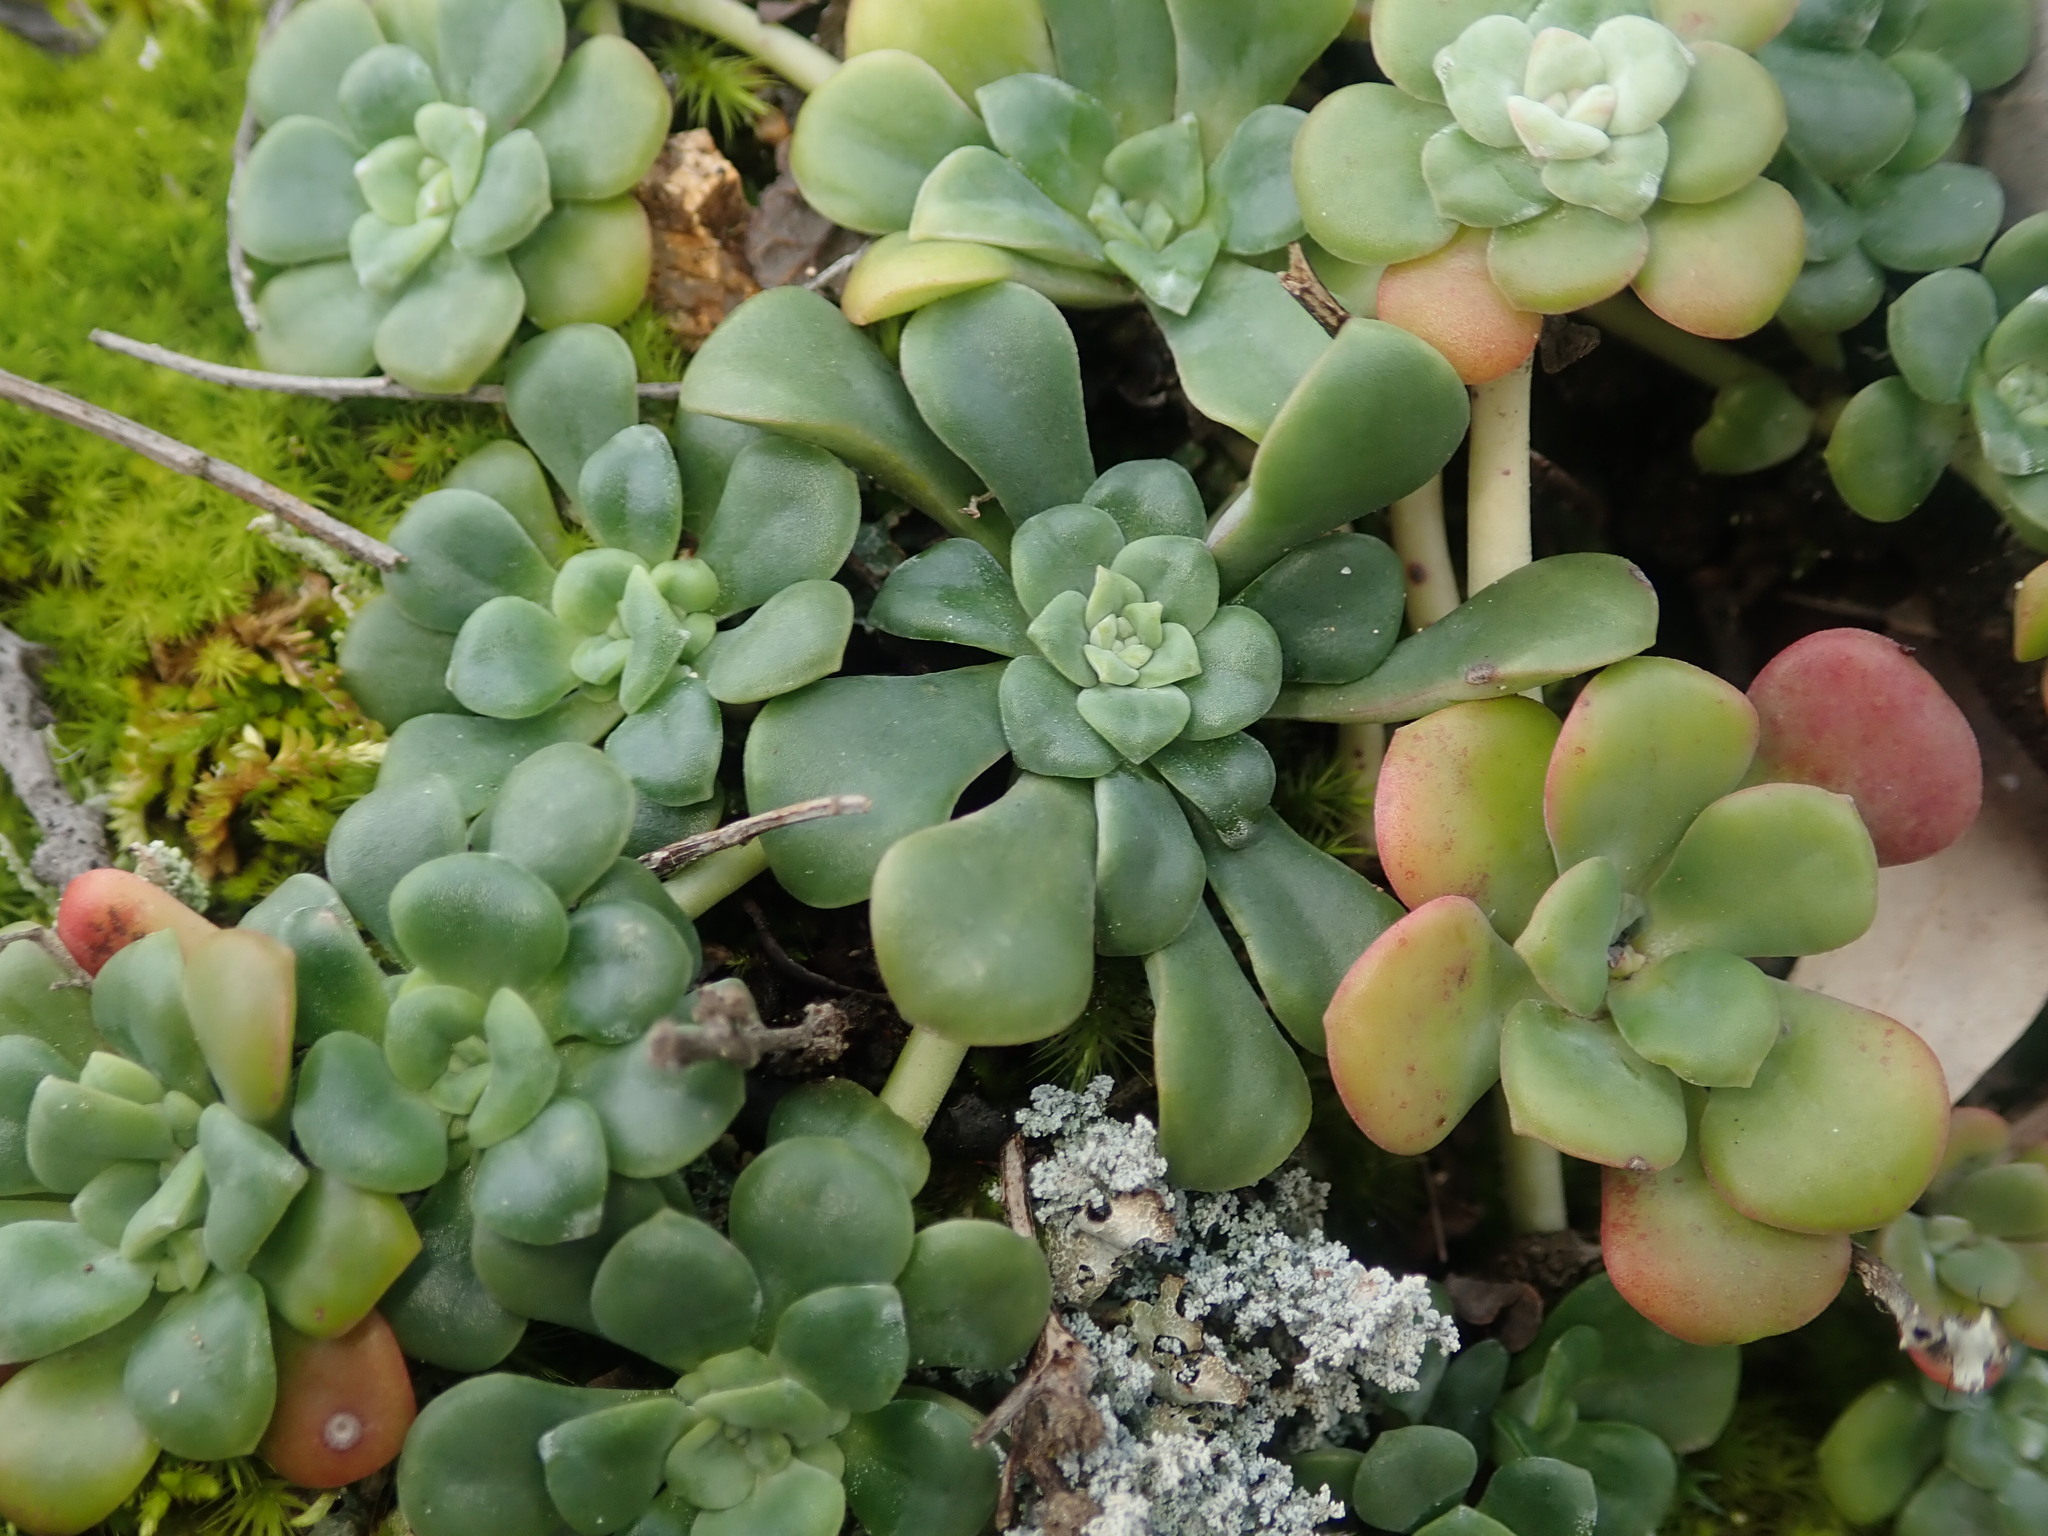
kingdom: Plantae
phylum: Tracheophyta
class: Magnoliopsida
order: Saxifragales
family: Crassulaceae
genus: Sedum
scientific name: Sedum spathulifolium
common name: Colorado stonecrop
